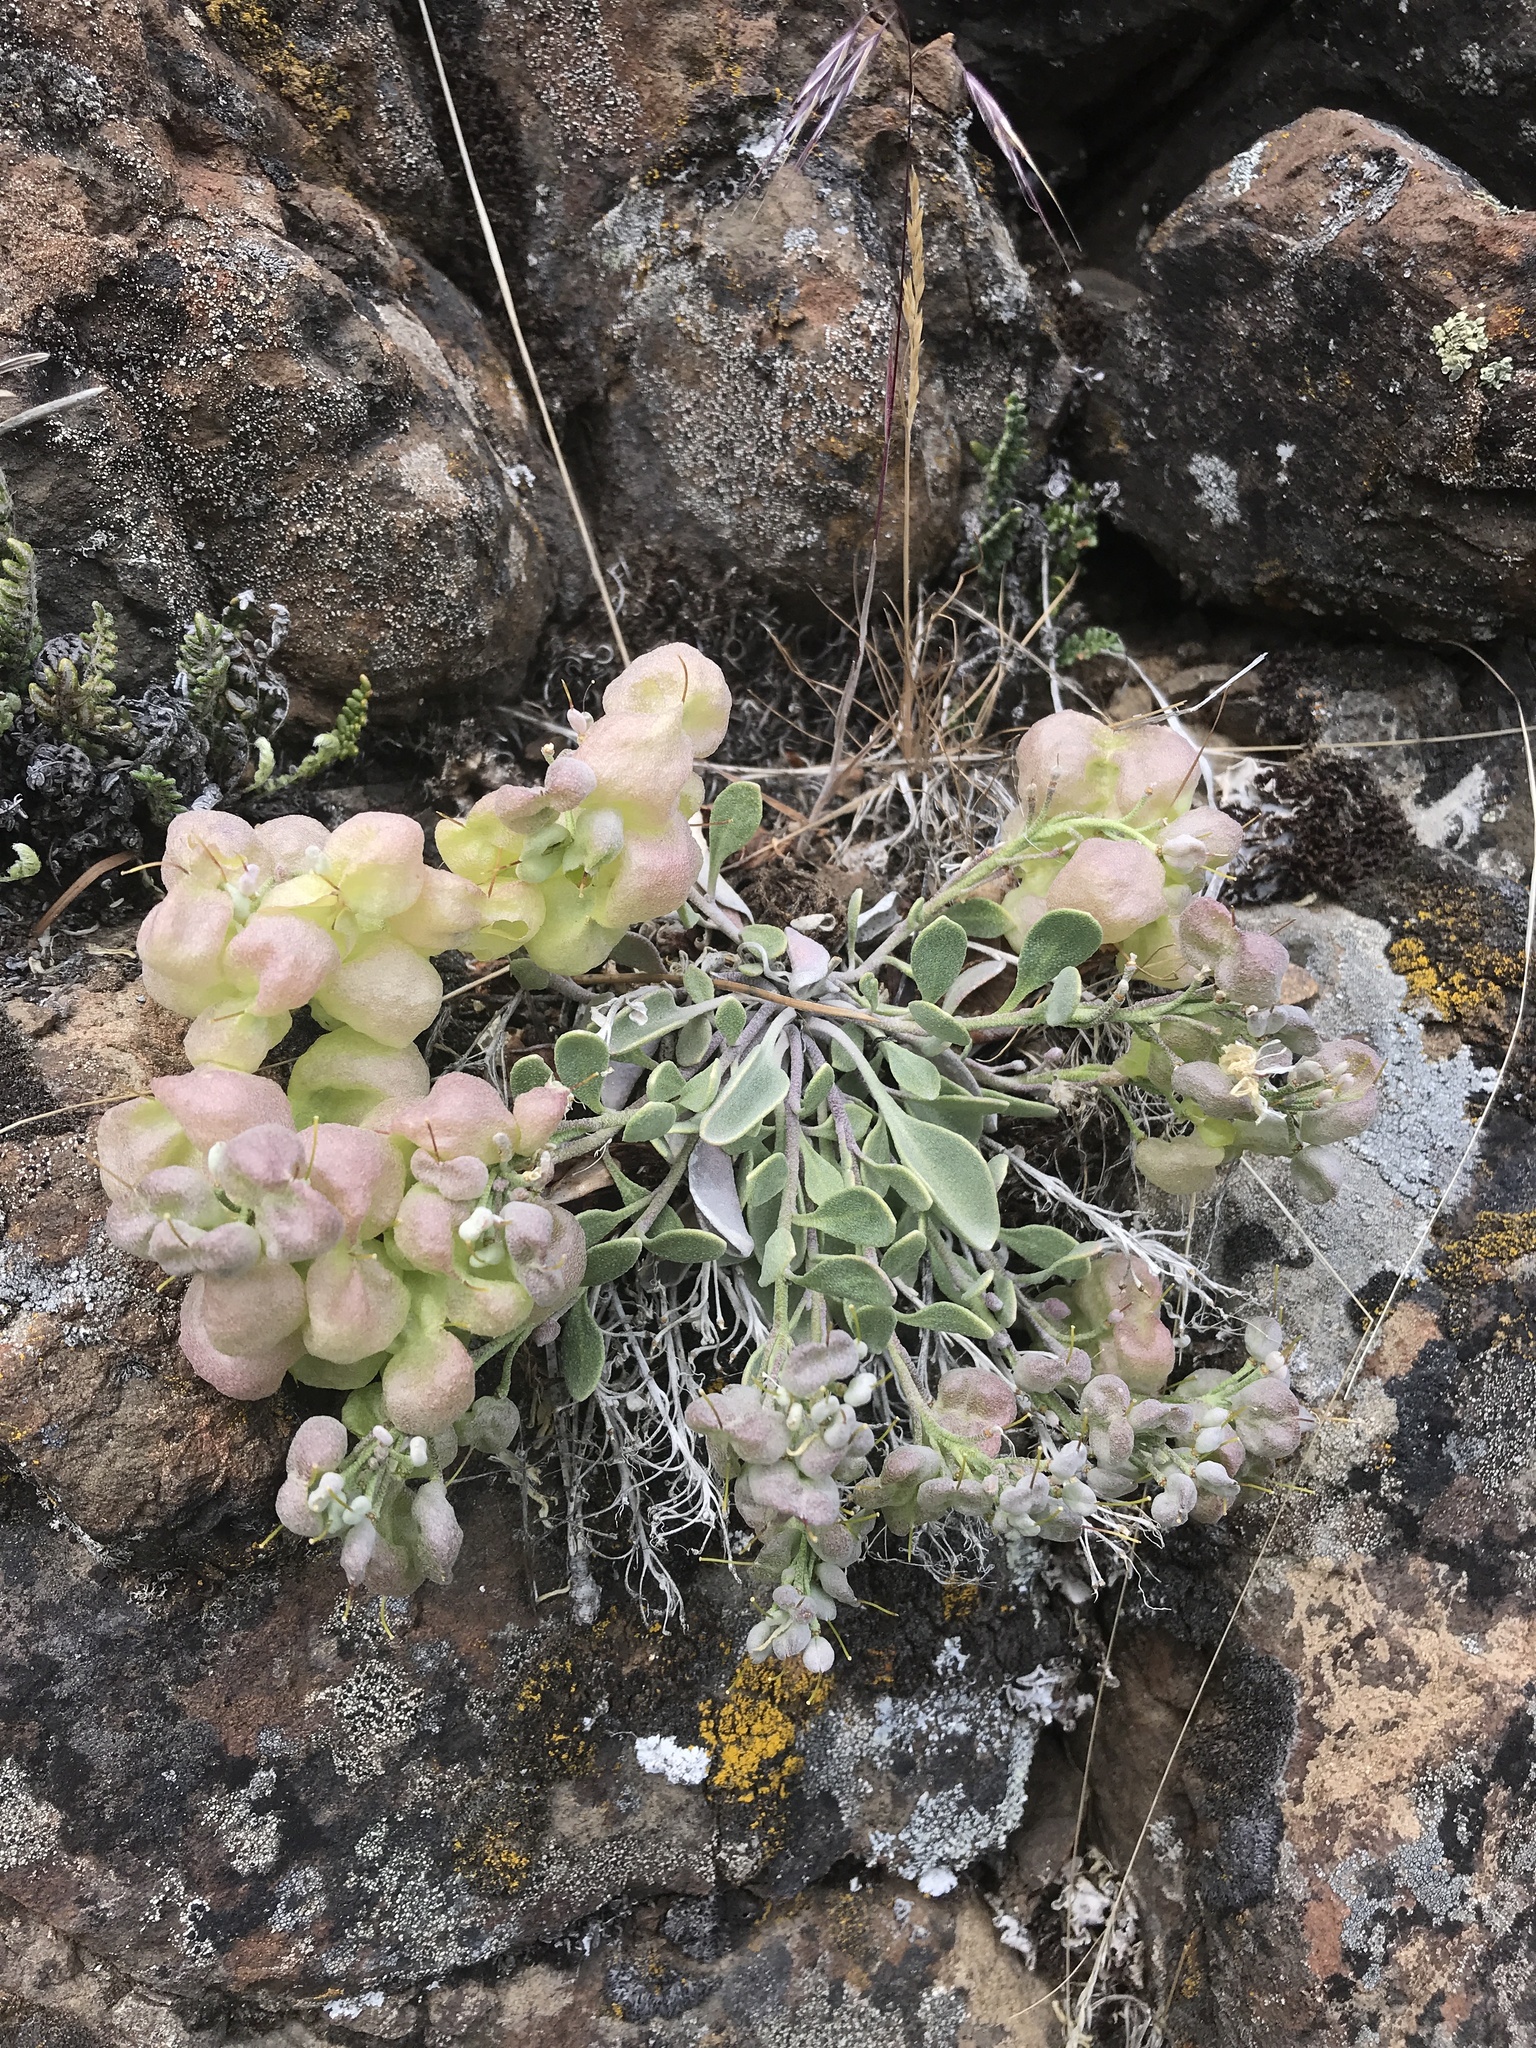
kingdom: Plantae
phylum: Tracheophyta
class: Magnoliopsida
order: Brassicales
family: Brassicaceae
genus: Physaria
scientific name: Physaria alpestris
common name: Washington twinpod
